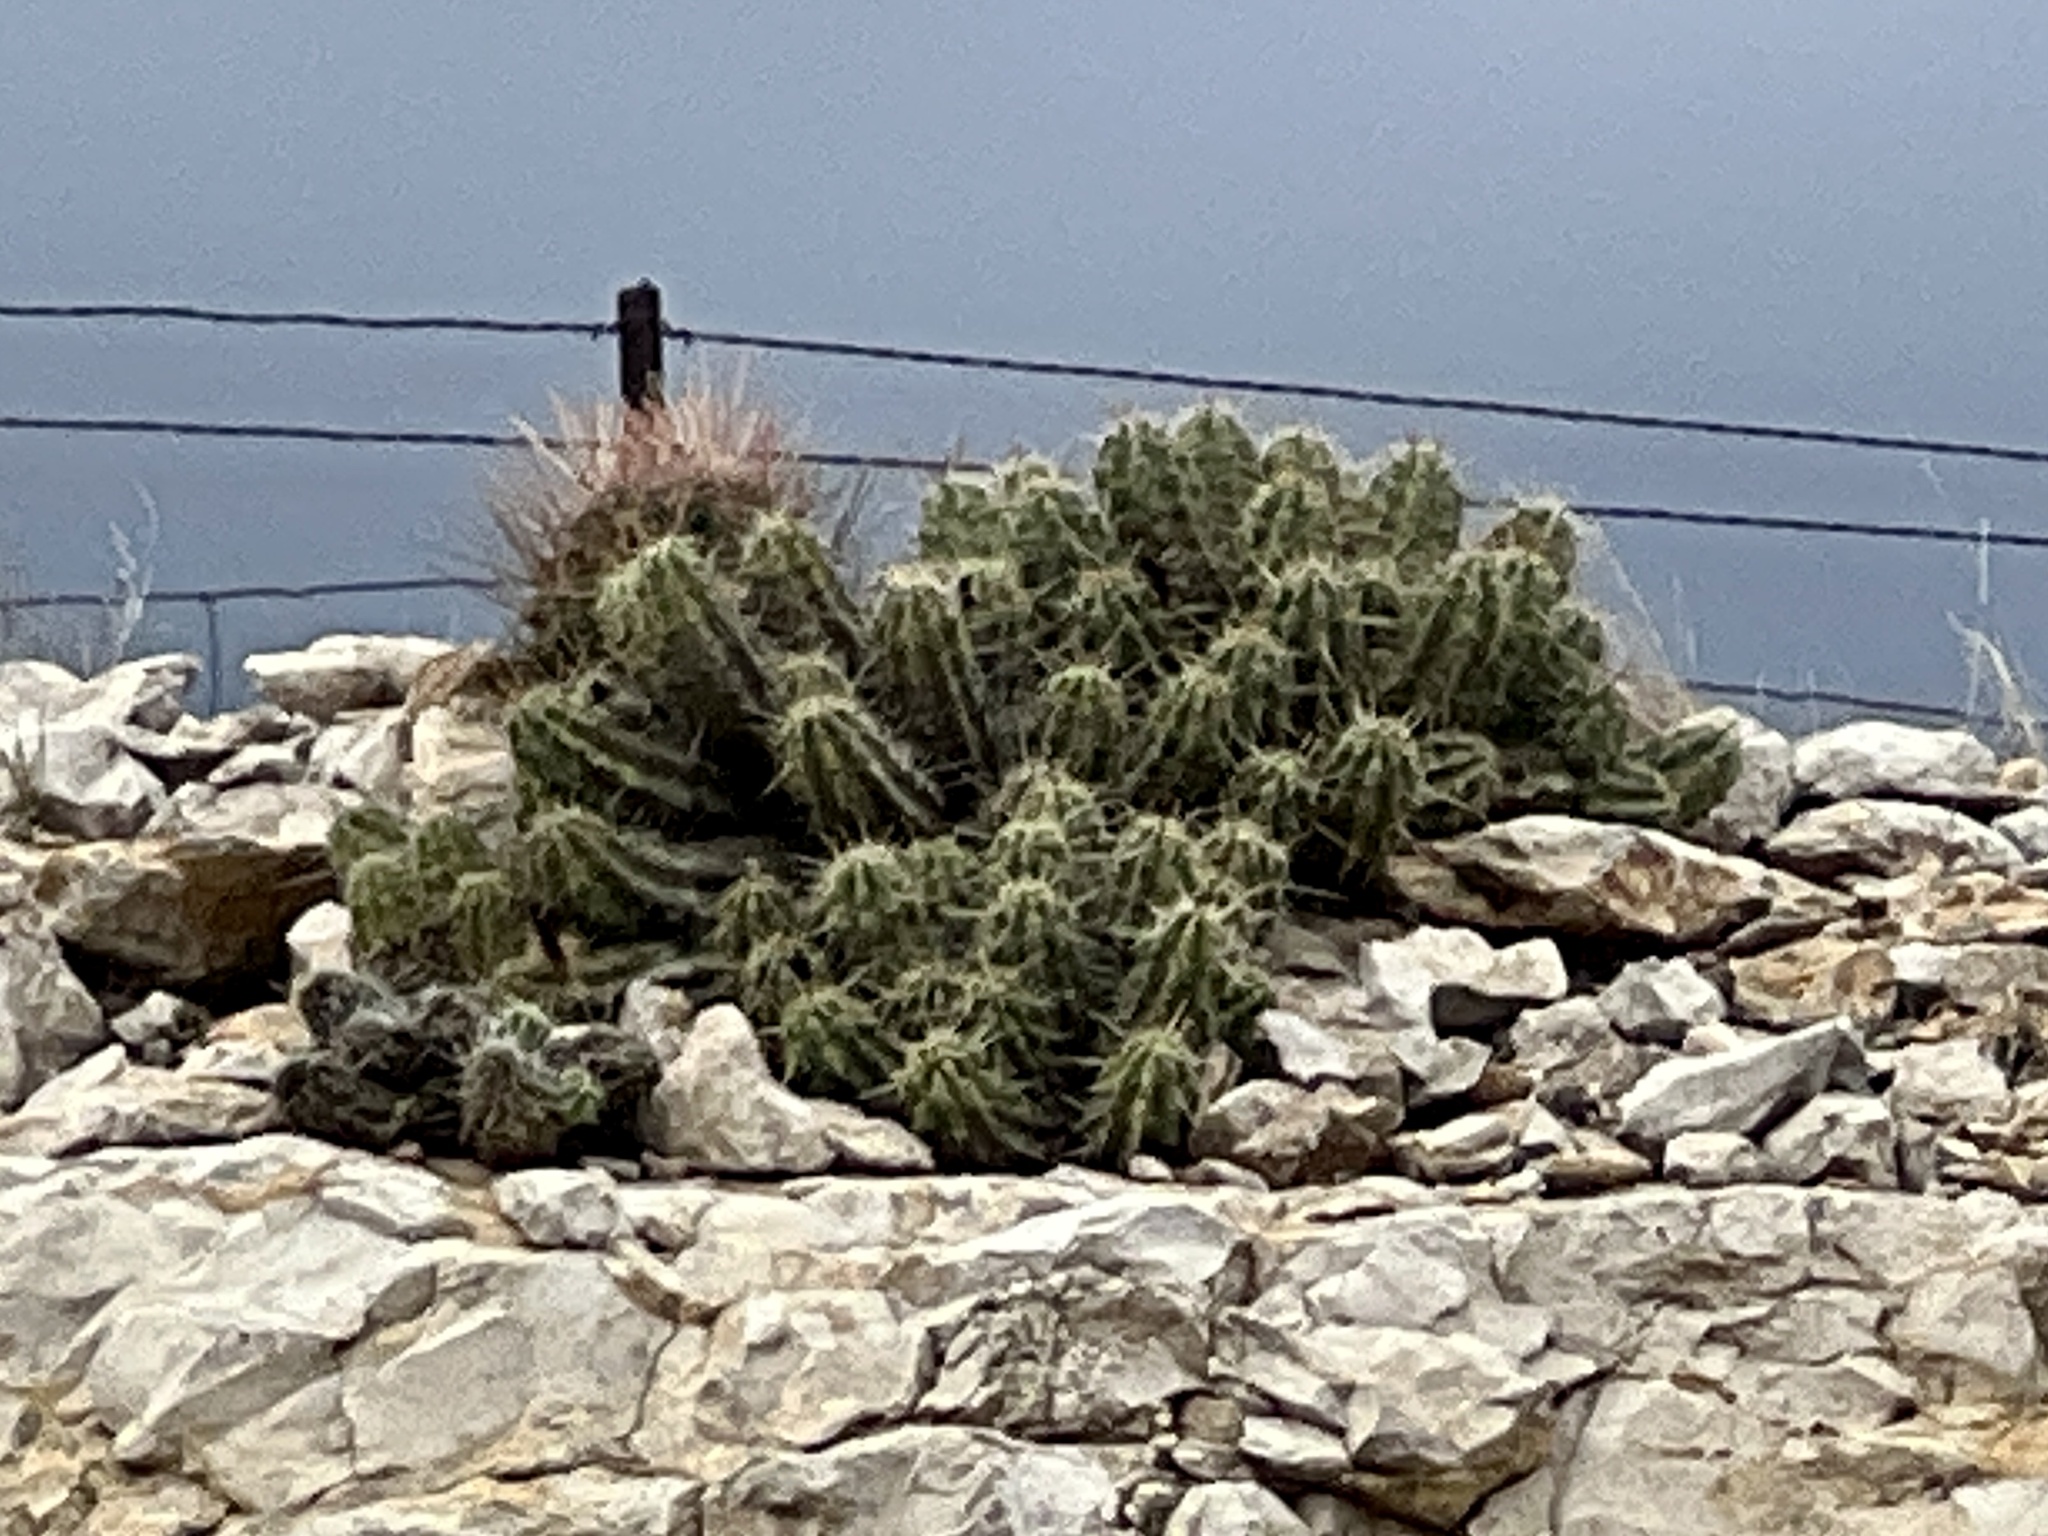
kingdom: Plantae
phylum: Tracheophyta
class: Magnoliopsida
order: Caryophyllales
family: Cactaceae
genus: Echinocereus
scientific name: Echinocereus enneacanthus
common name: Pitaya
